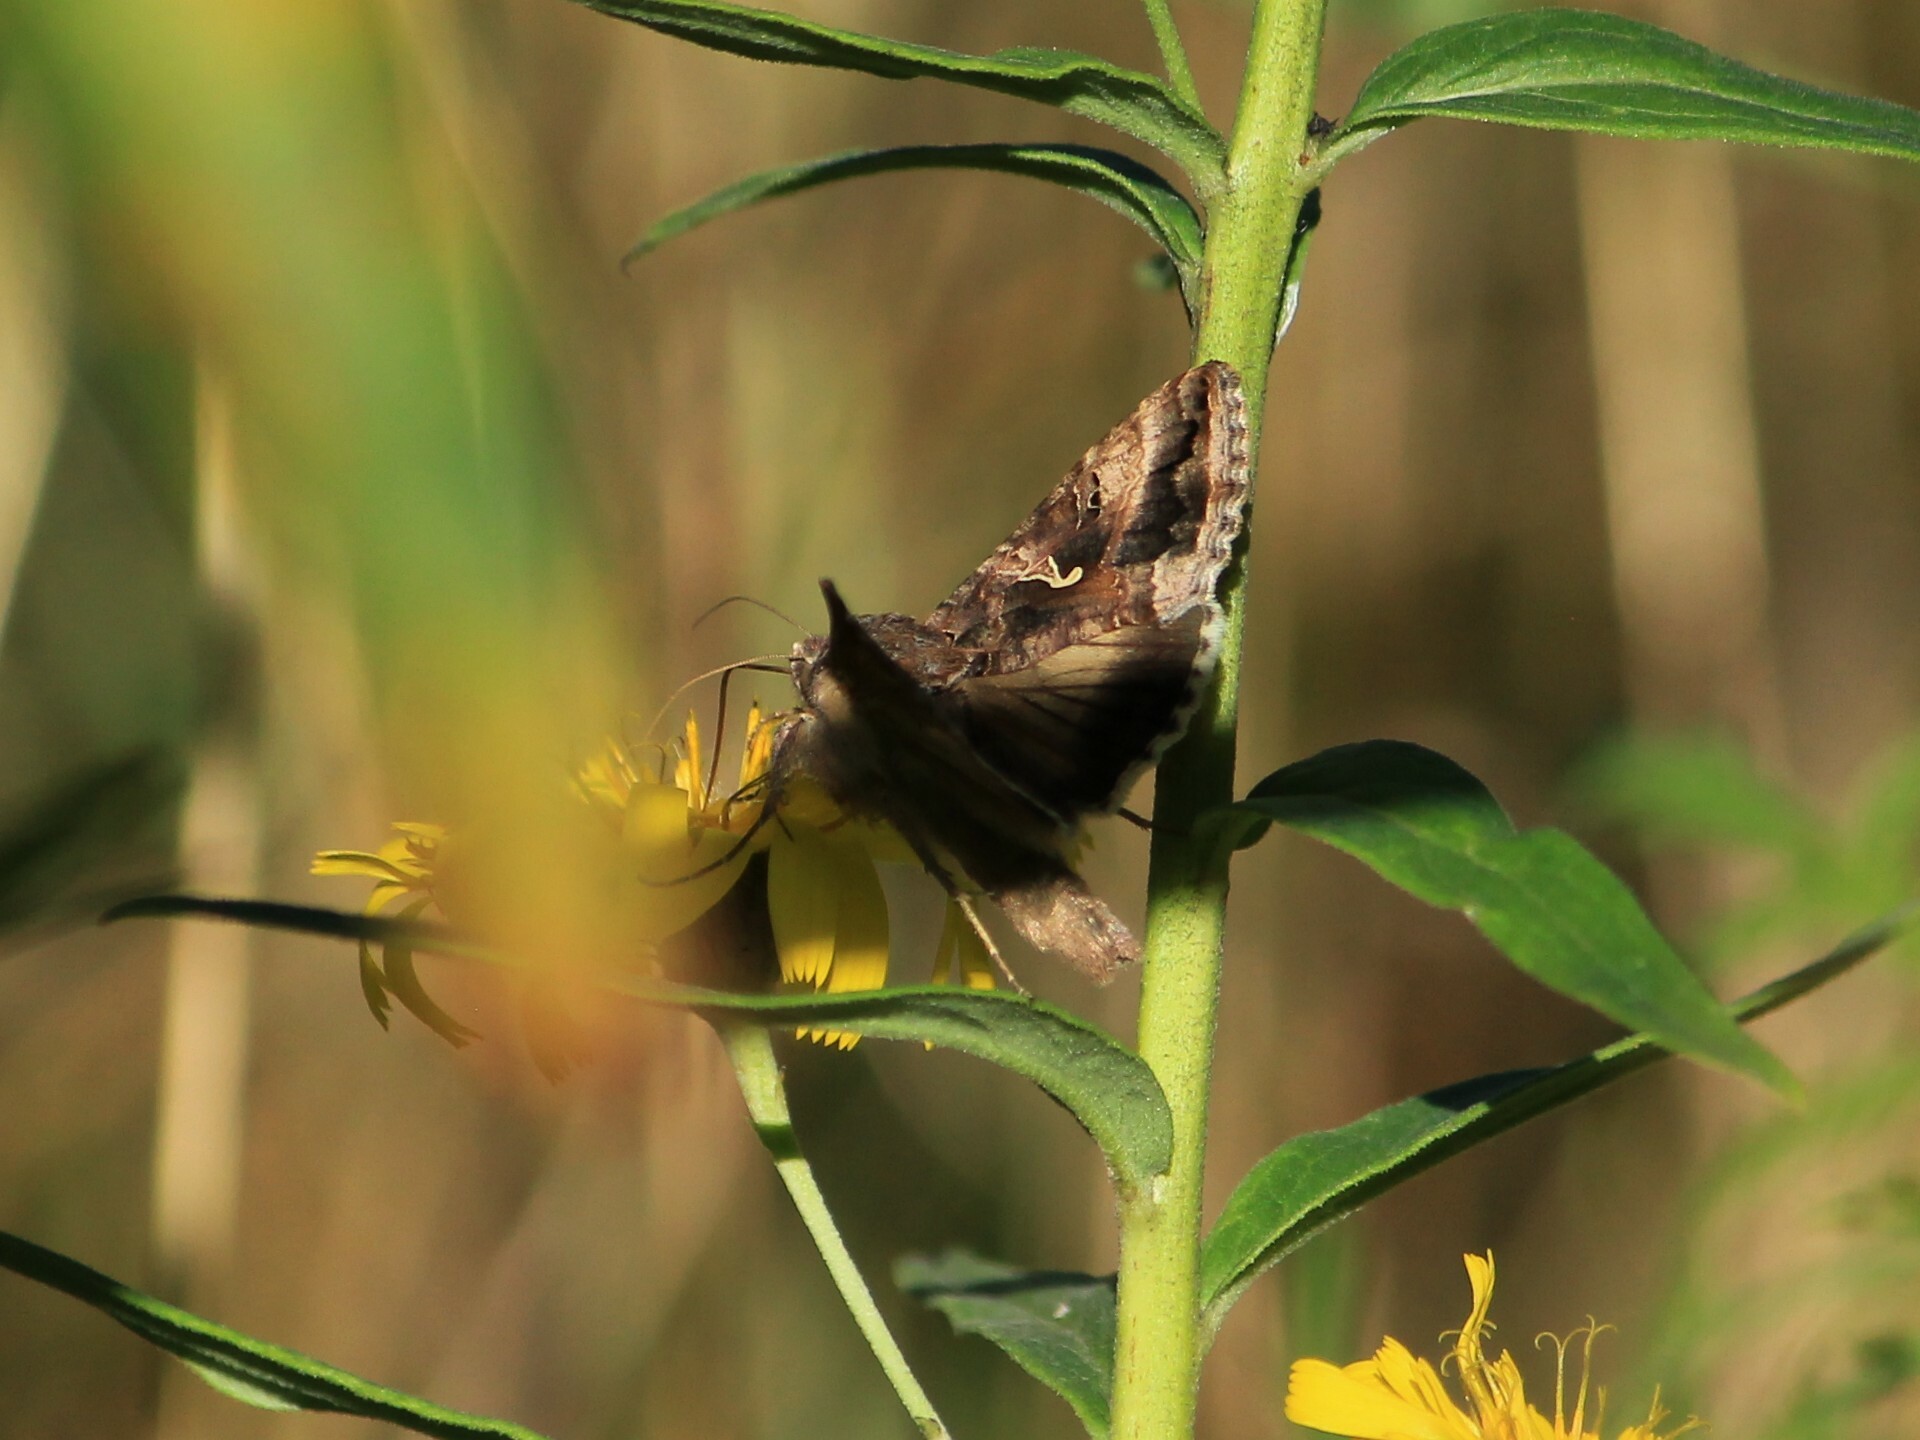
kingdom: Animalia
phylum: Arthropoda
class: Insecta
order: Lepidoptera
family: Noctuidae
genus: Autographa
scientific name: Autographa gamma
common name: Silver y
